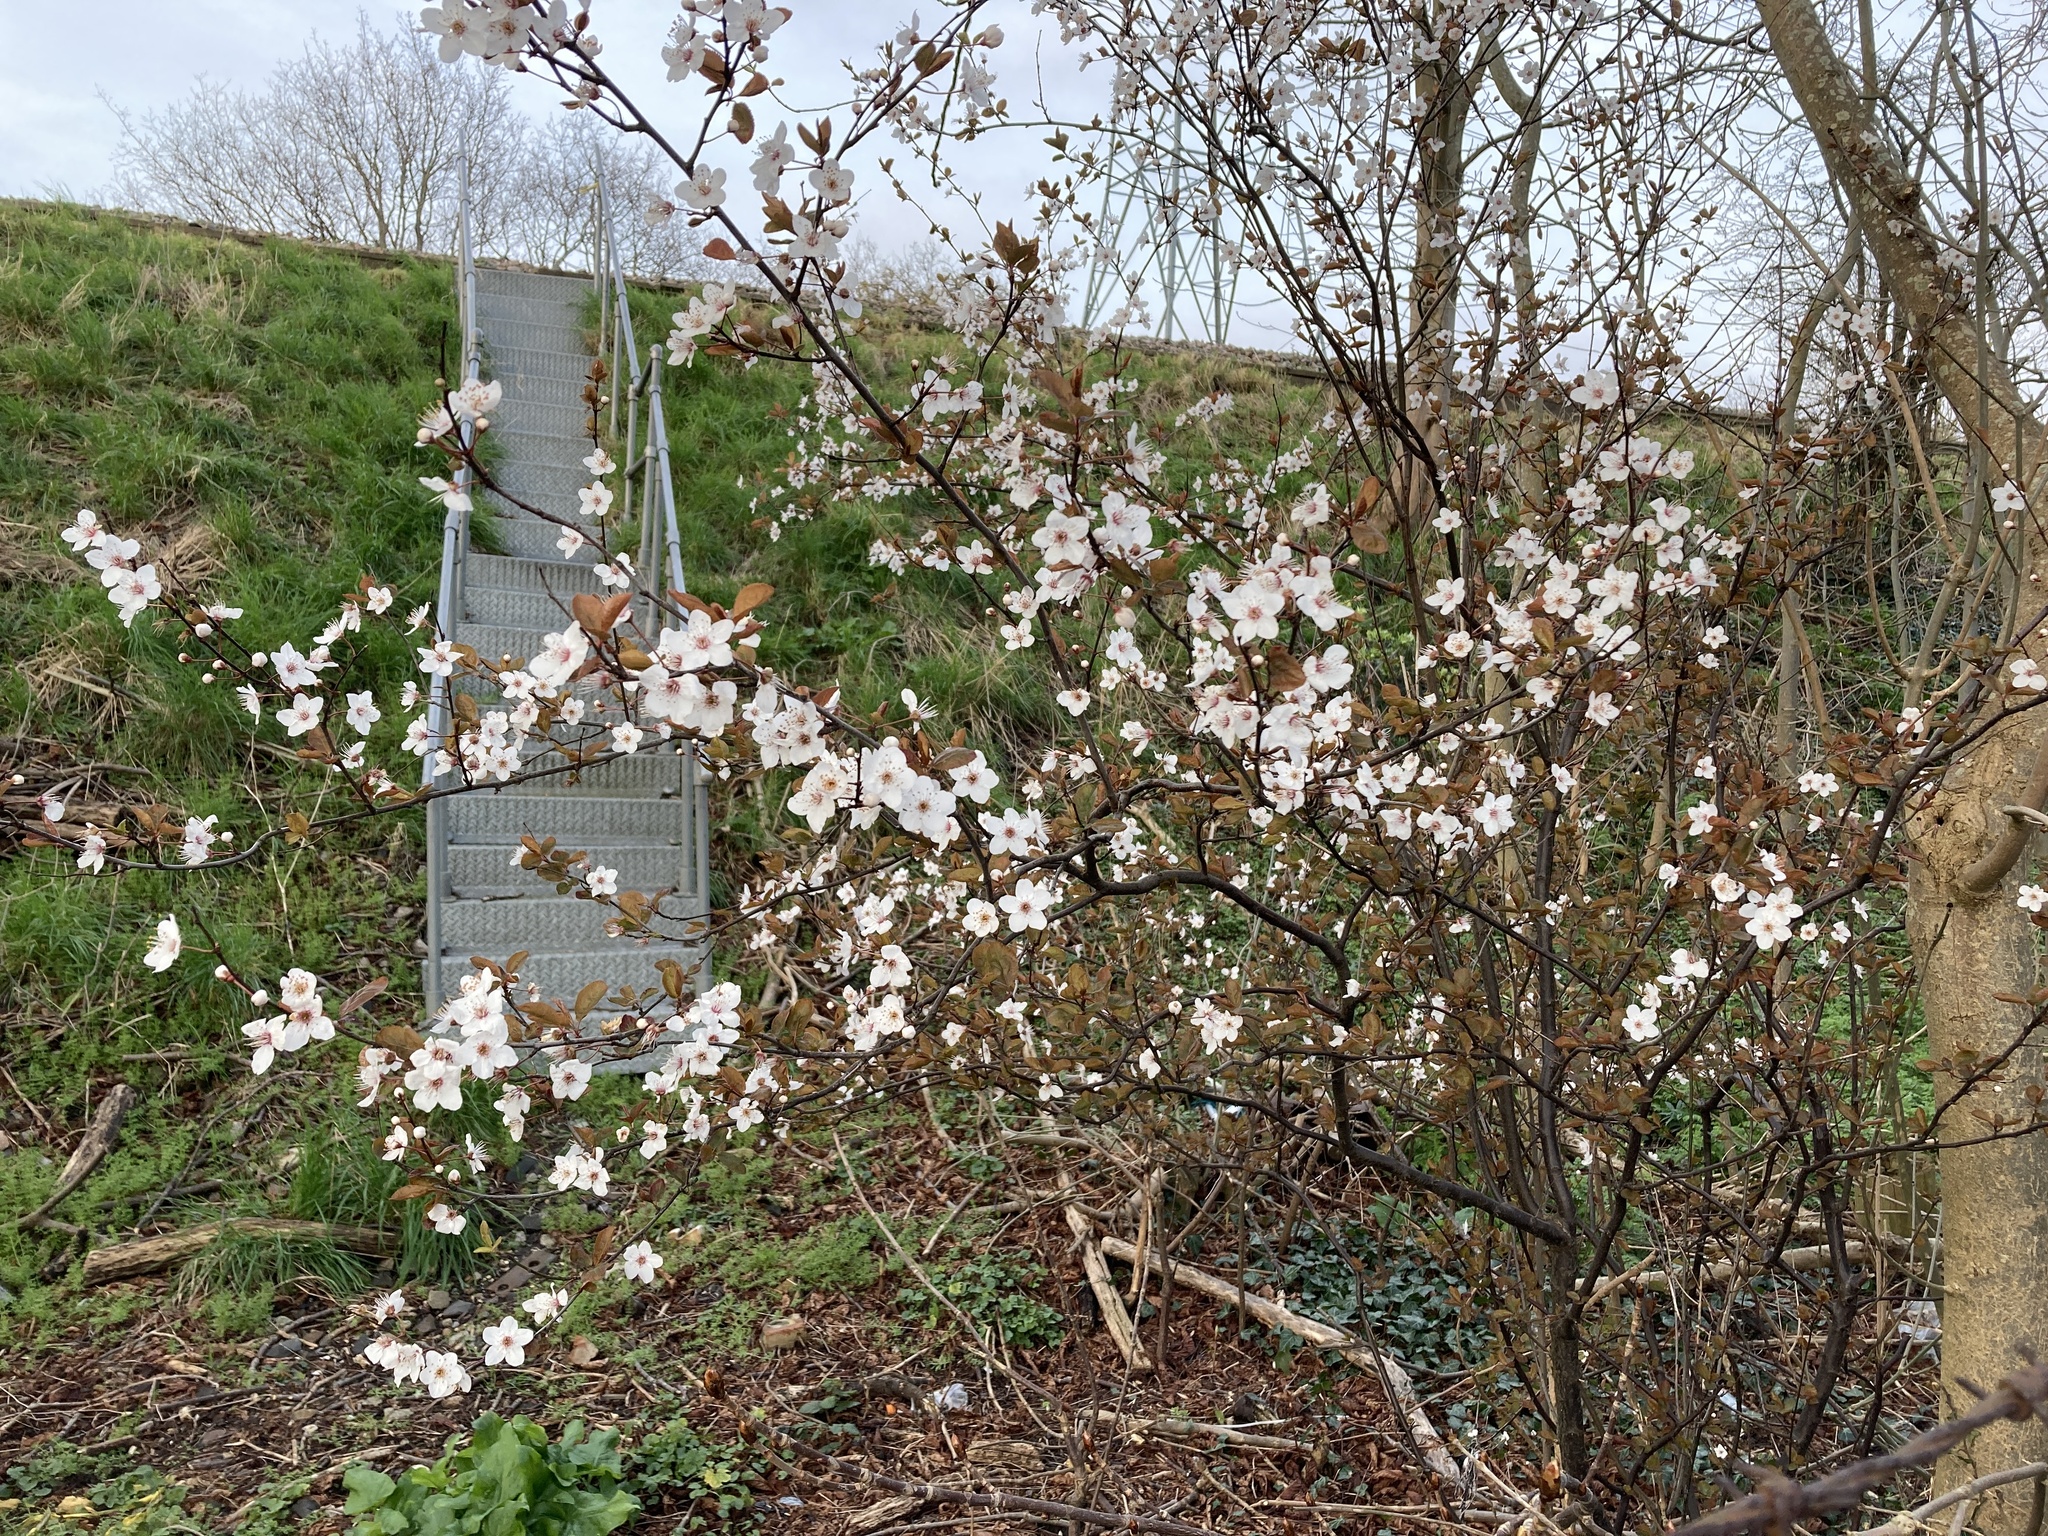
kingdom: Plantae
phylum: Tracheophyta
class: Magnoliopsida
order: Rosales
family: Rosaceae
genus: Prunus
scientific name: Prunus cerasifera
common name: Cherry plum
